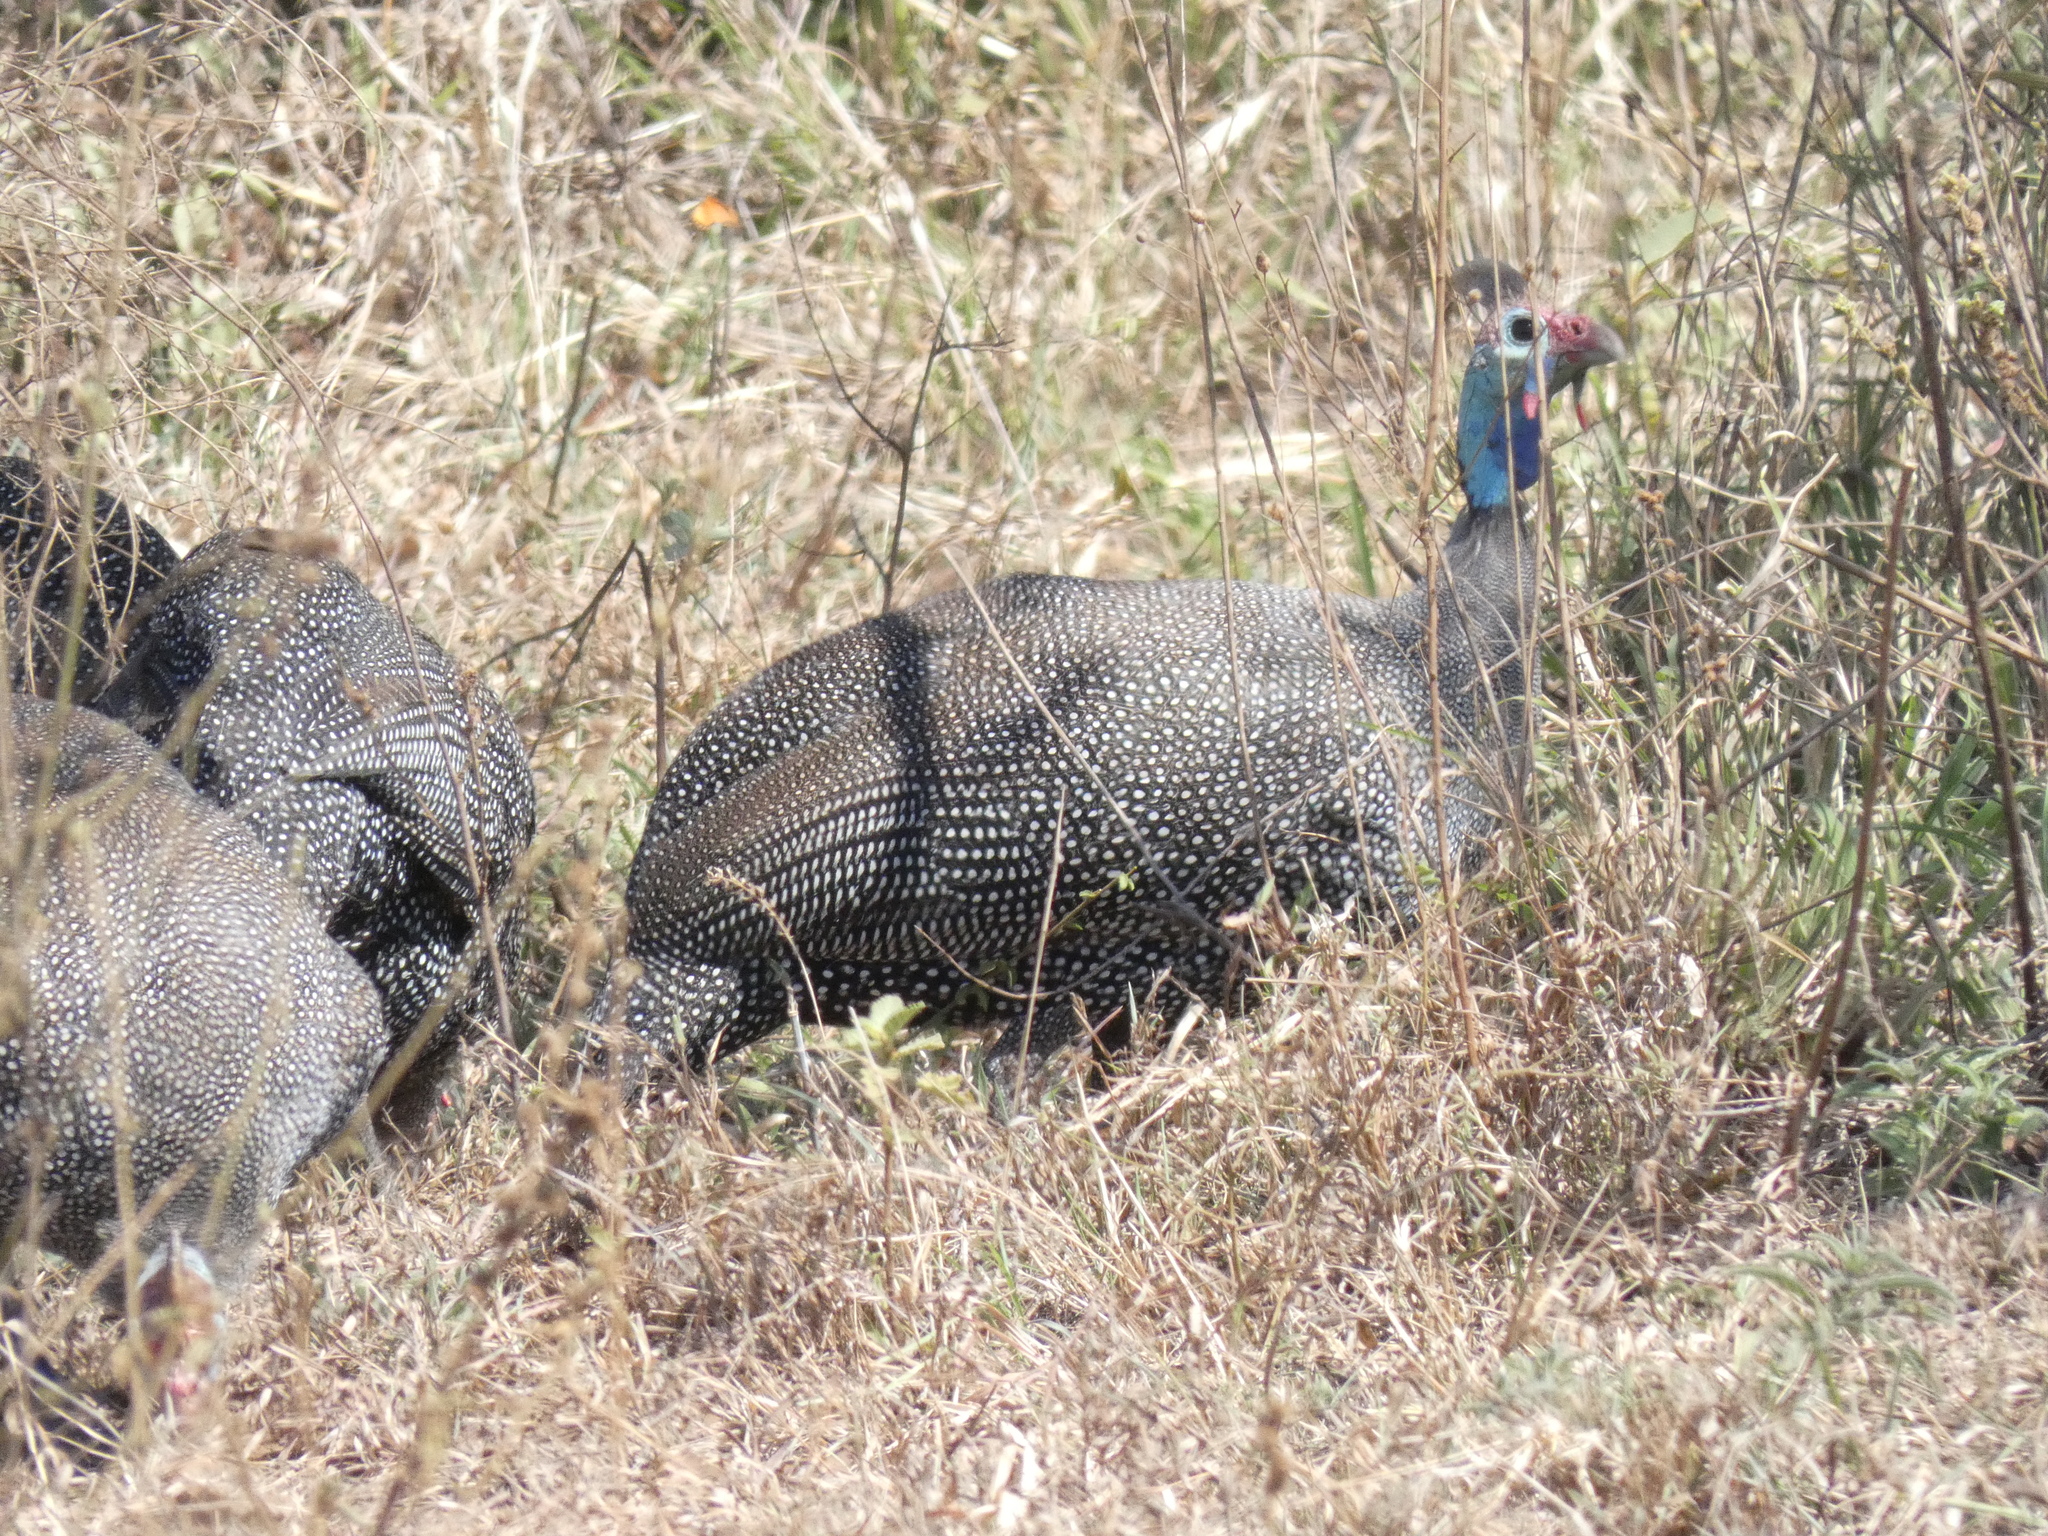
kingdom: Animalia
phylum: Chordata
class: Aves
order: Galliformes
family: Numididae
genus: Numida
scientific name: Numida meleagris
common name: Helmeted guineafowl
